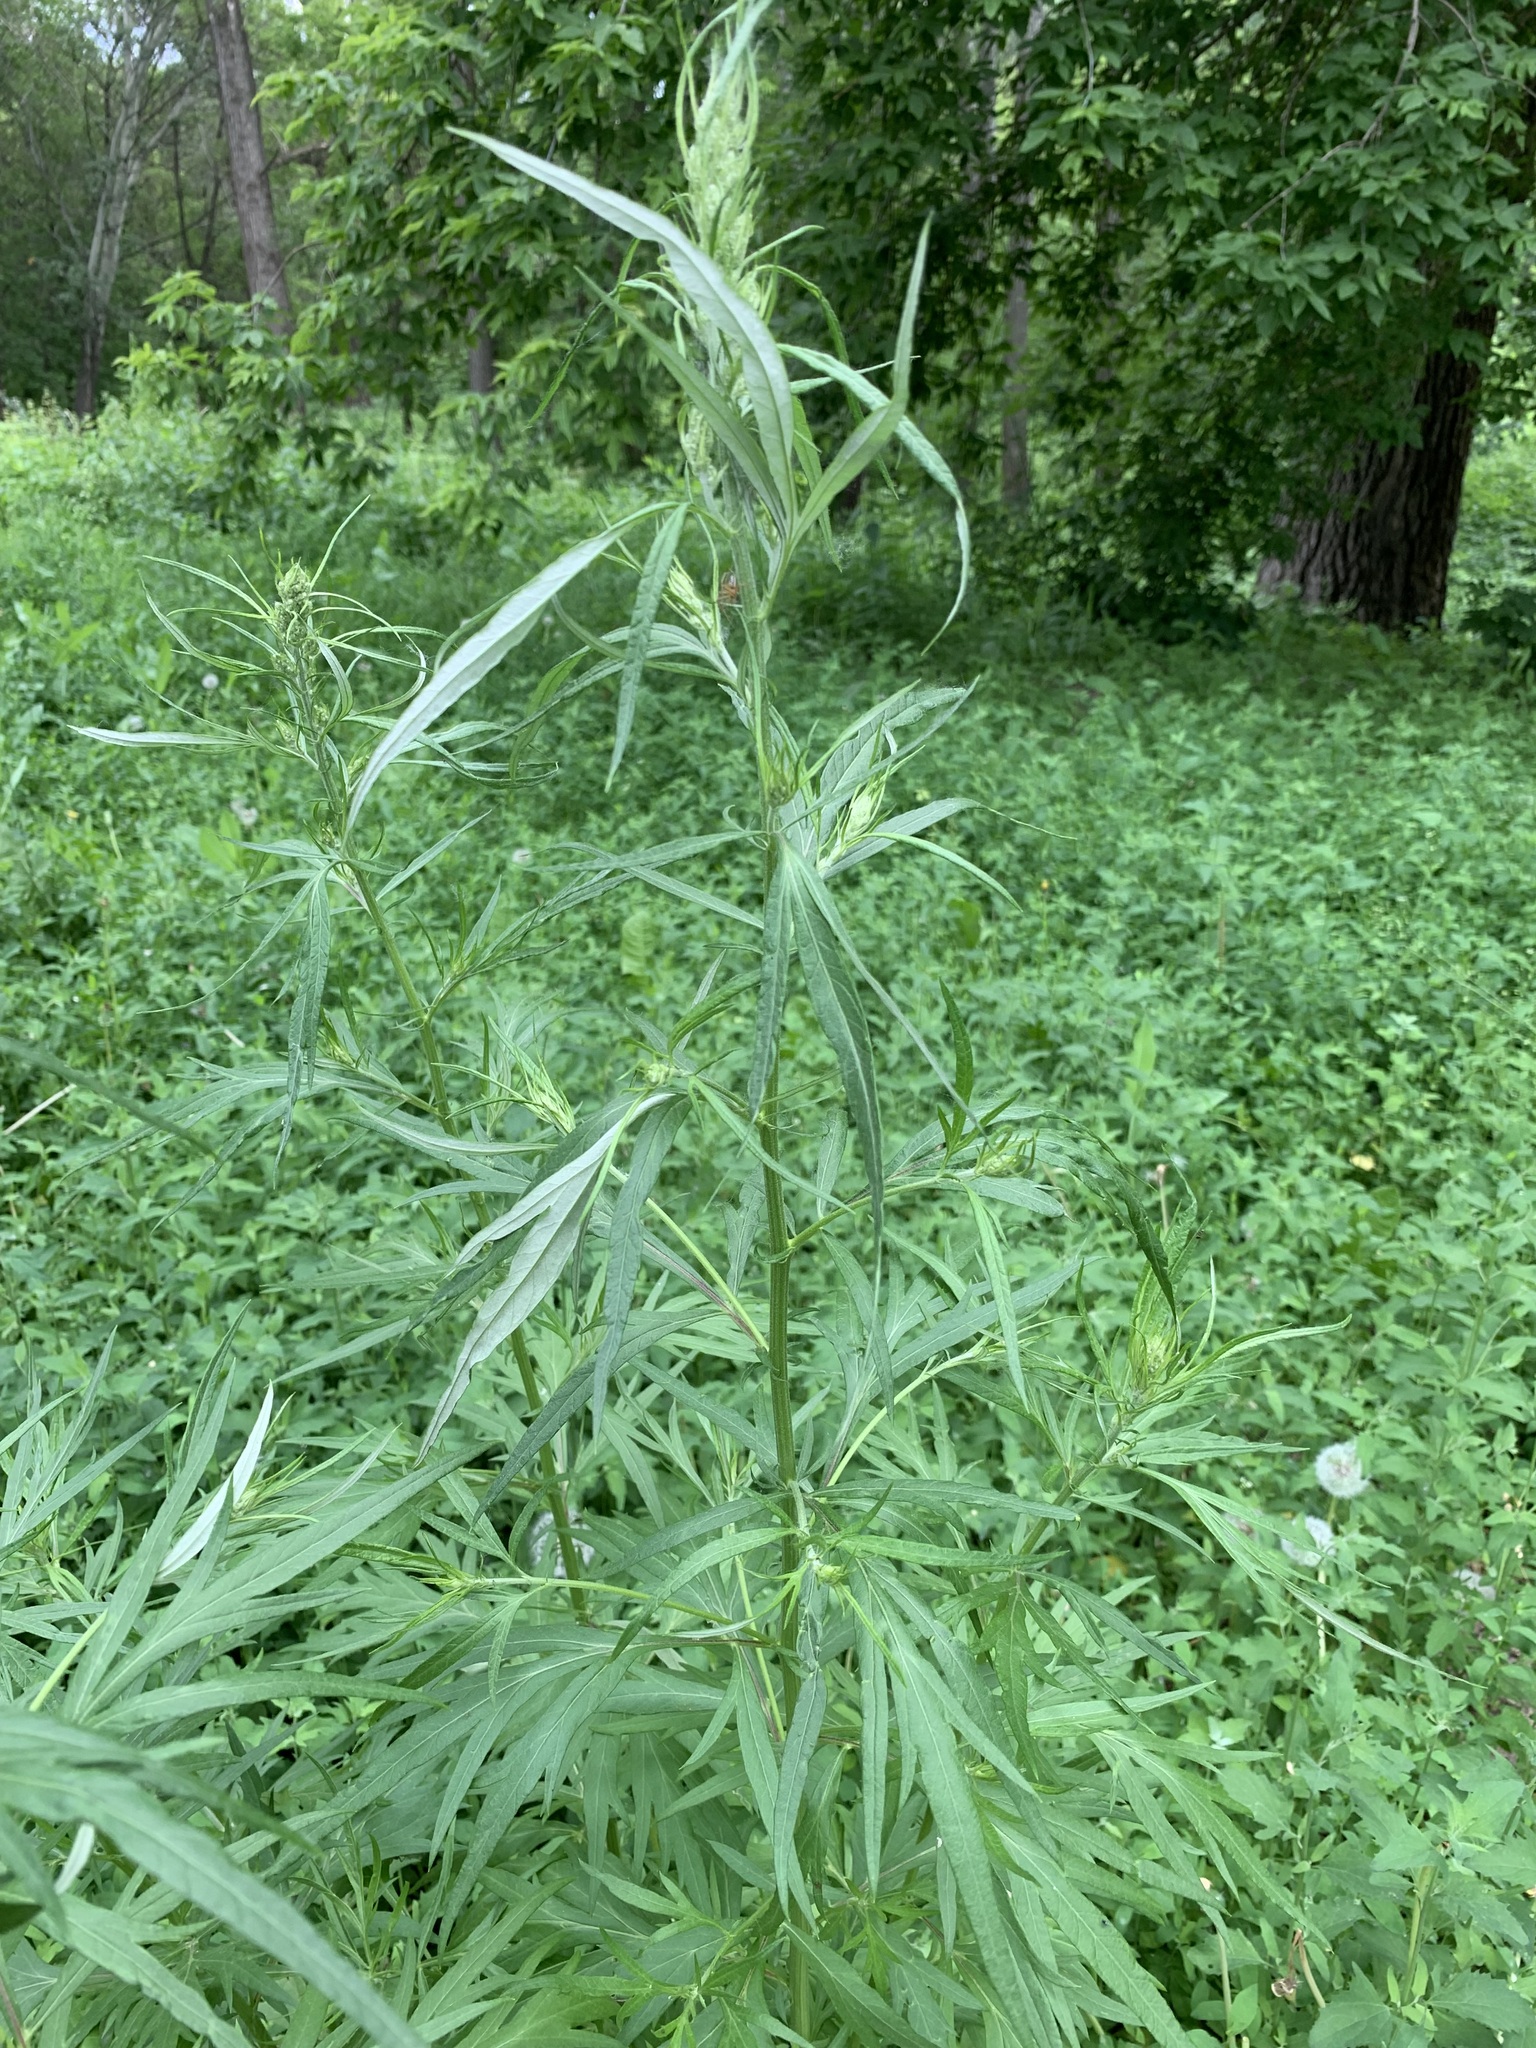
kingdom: Plantae
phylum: Tracheophyta
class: Magnoliopsida
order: Asterales
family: Asteraceae
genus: Artemisia
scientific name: Artemisia vulgaris
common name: Mugwort
